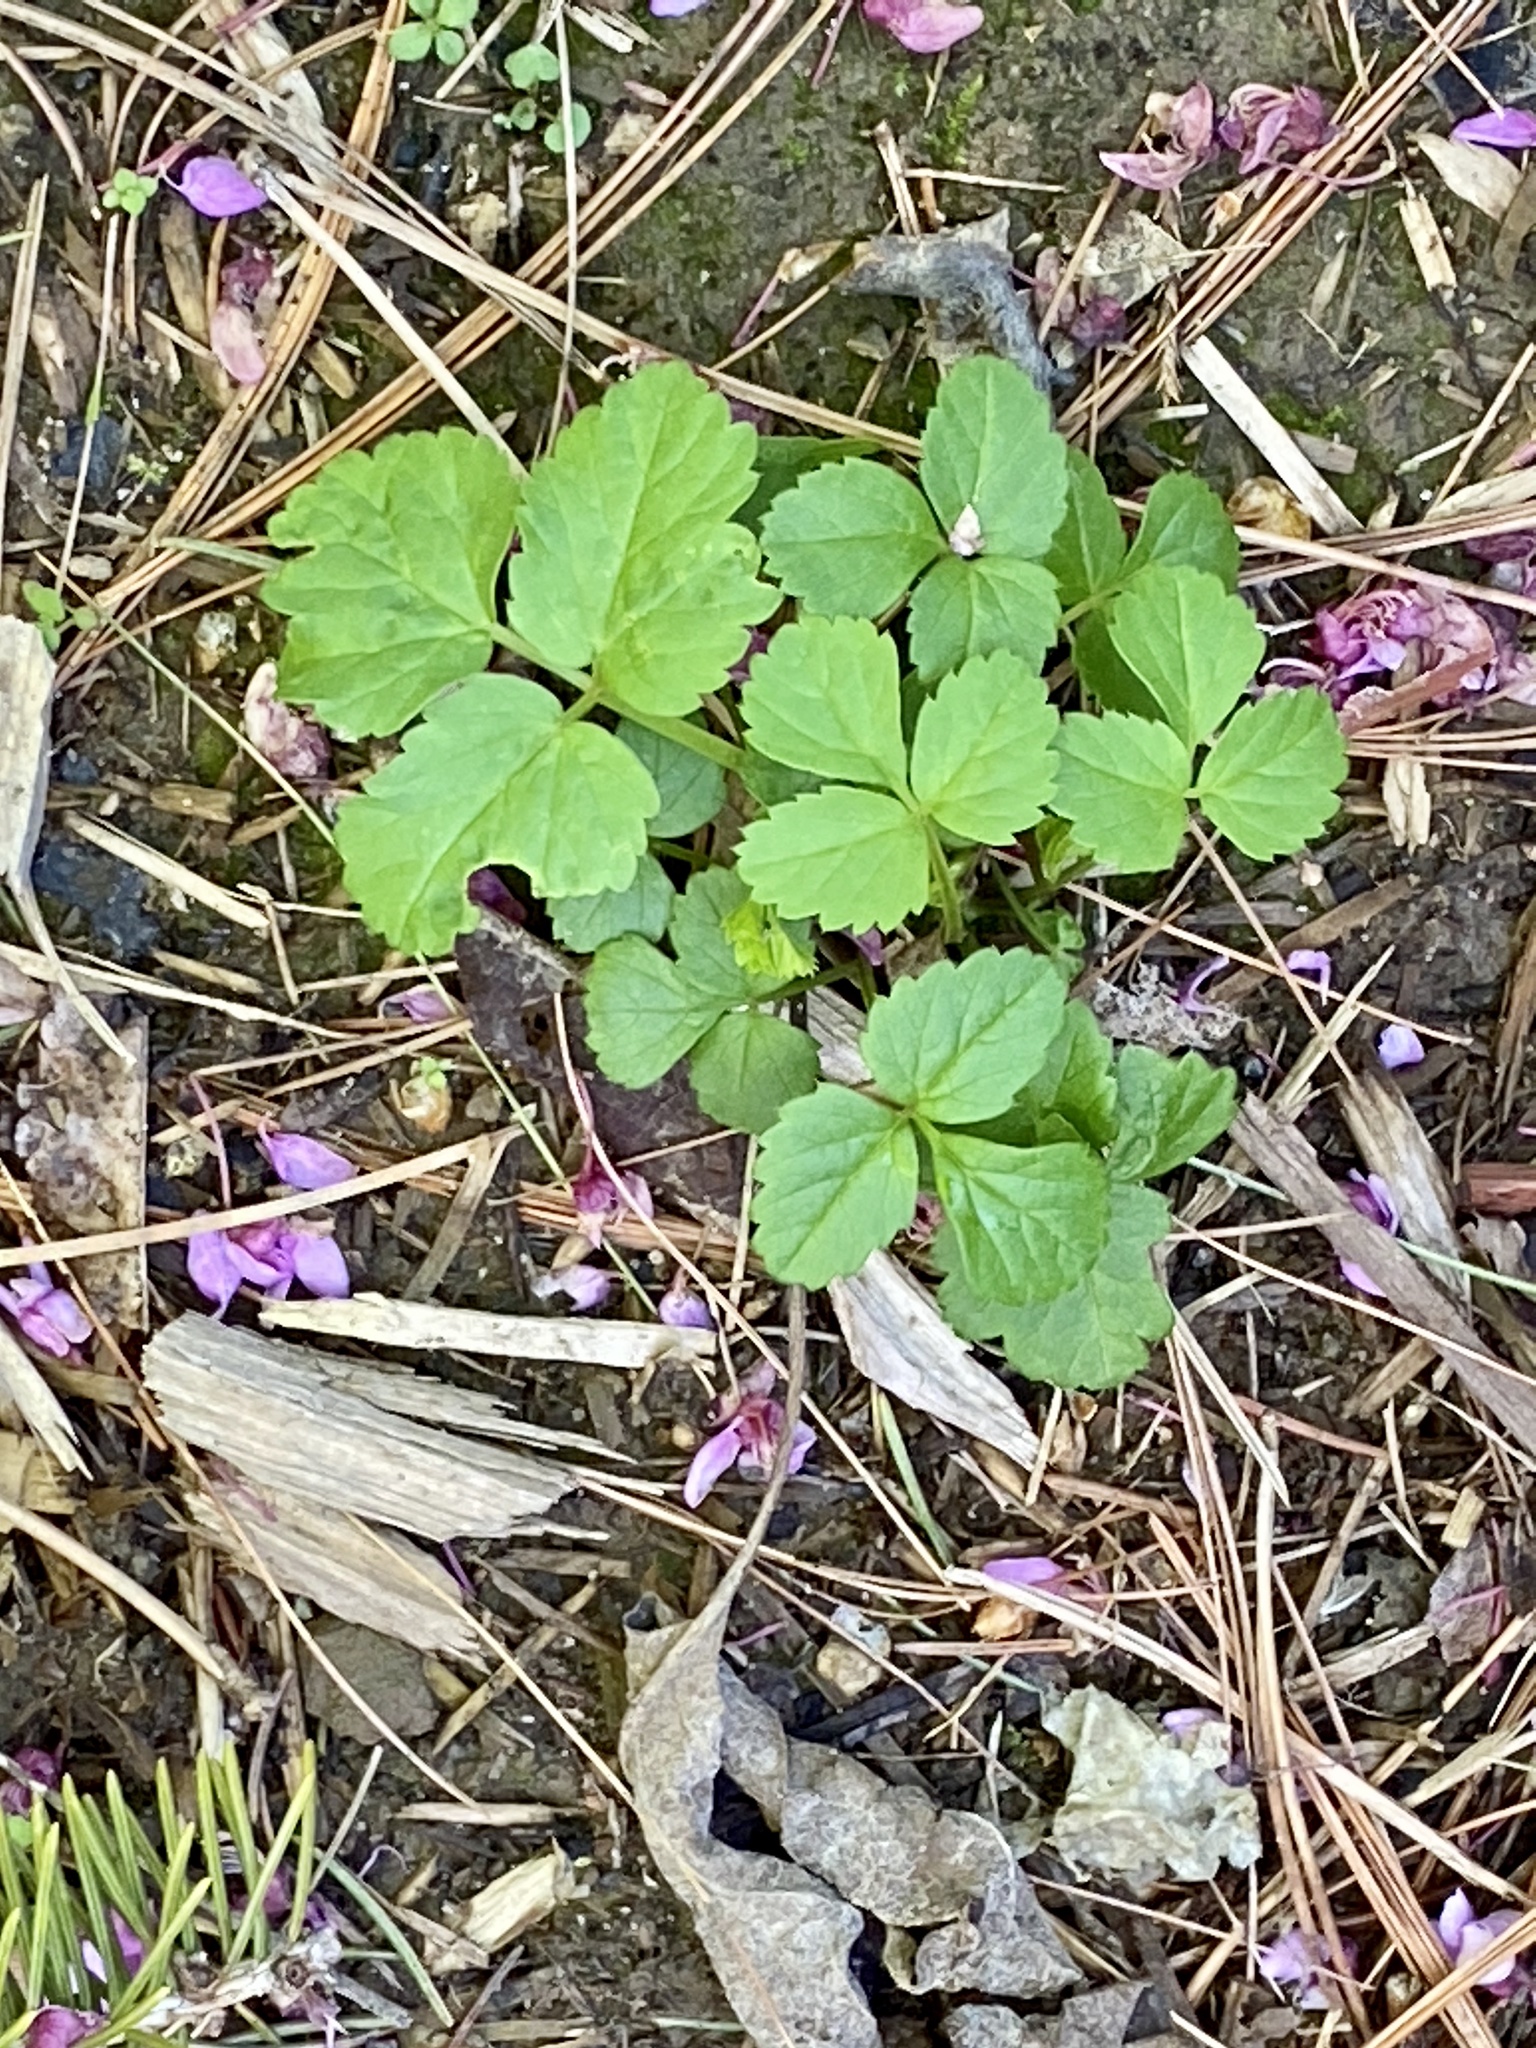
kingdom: Plantae
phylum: Tracheophyta
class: Magnoliopsida
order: Apiales
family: Apiaceae
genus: Aegopodium
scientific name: Aegopodium podagraria
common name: Ground-elder
